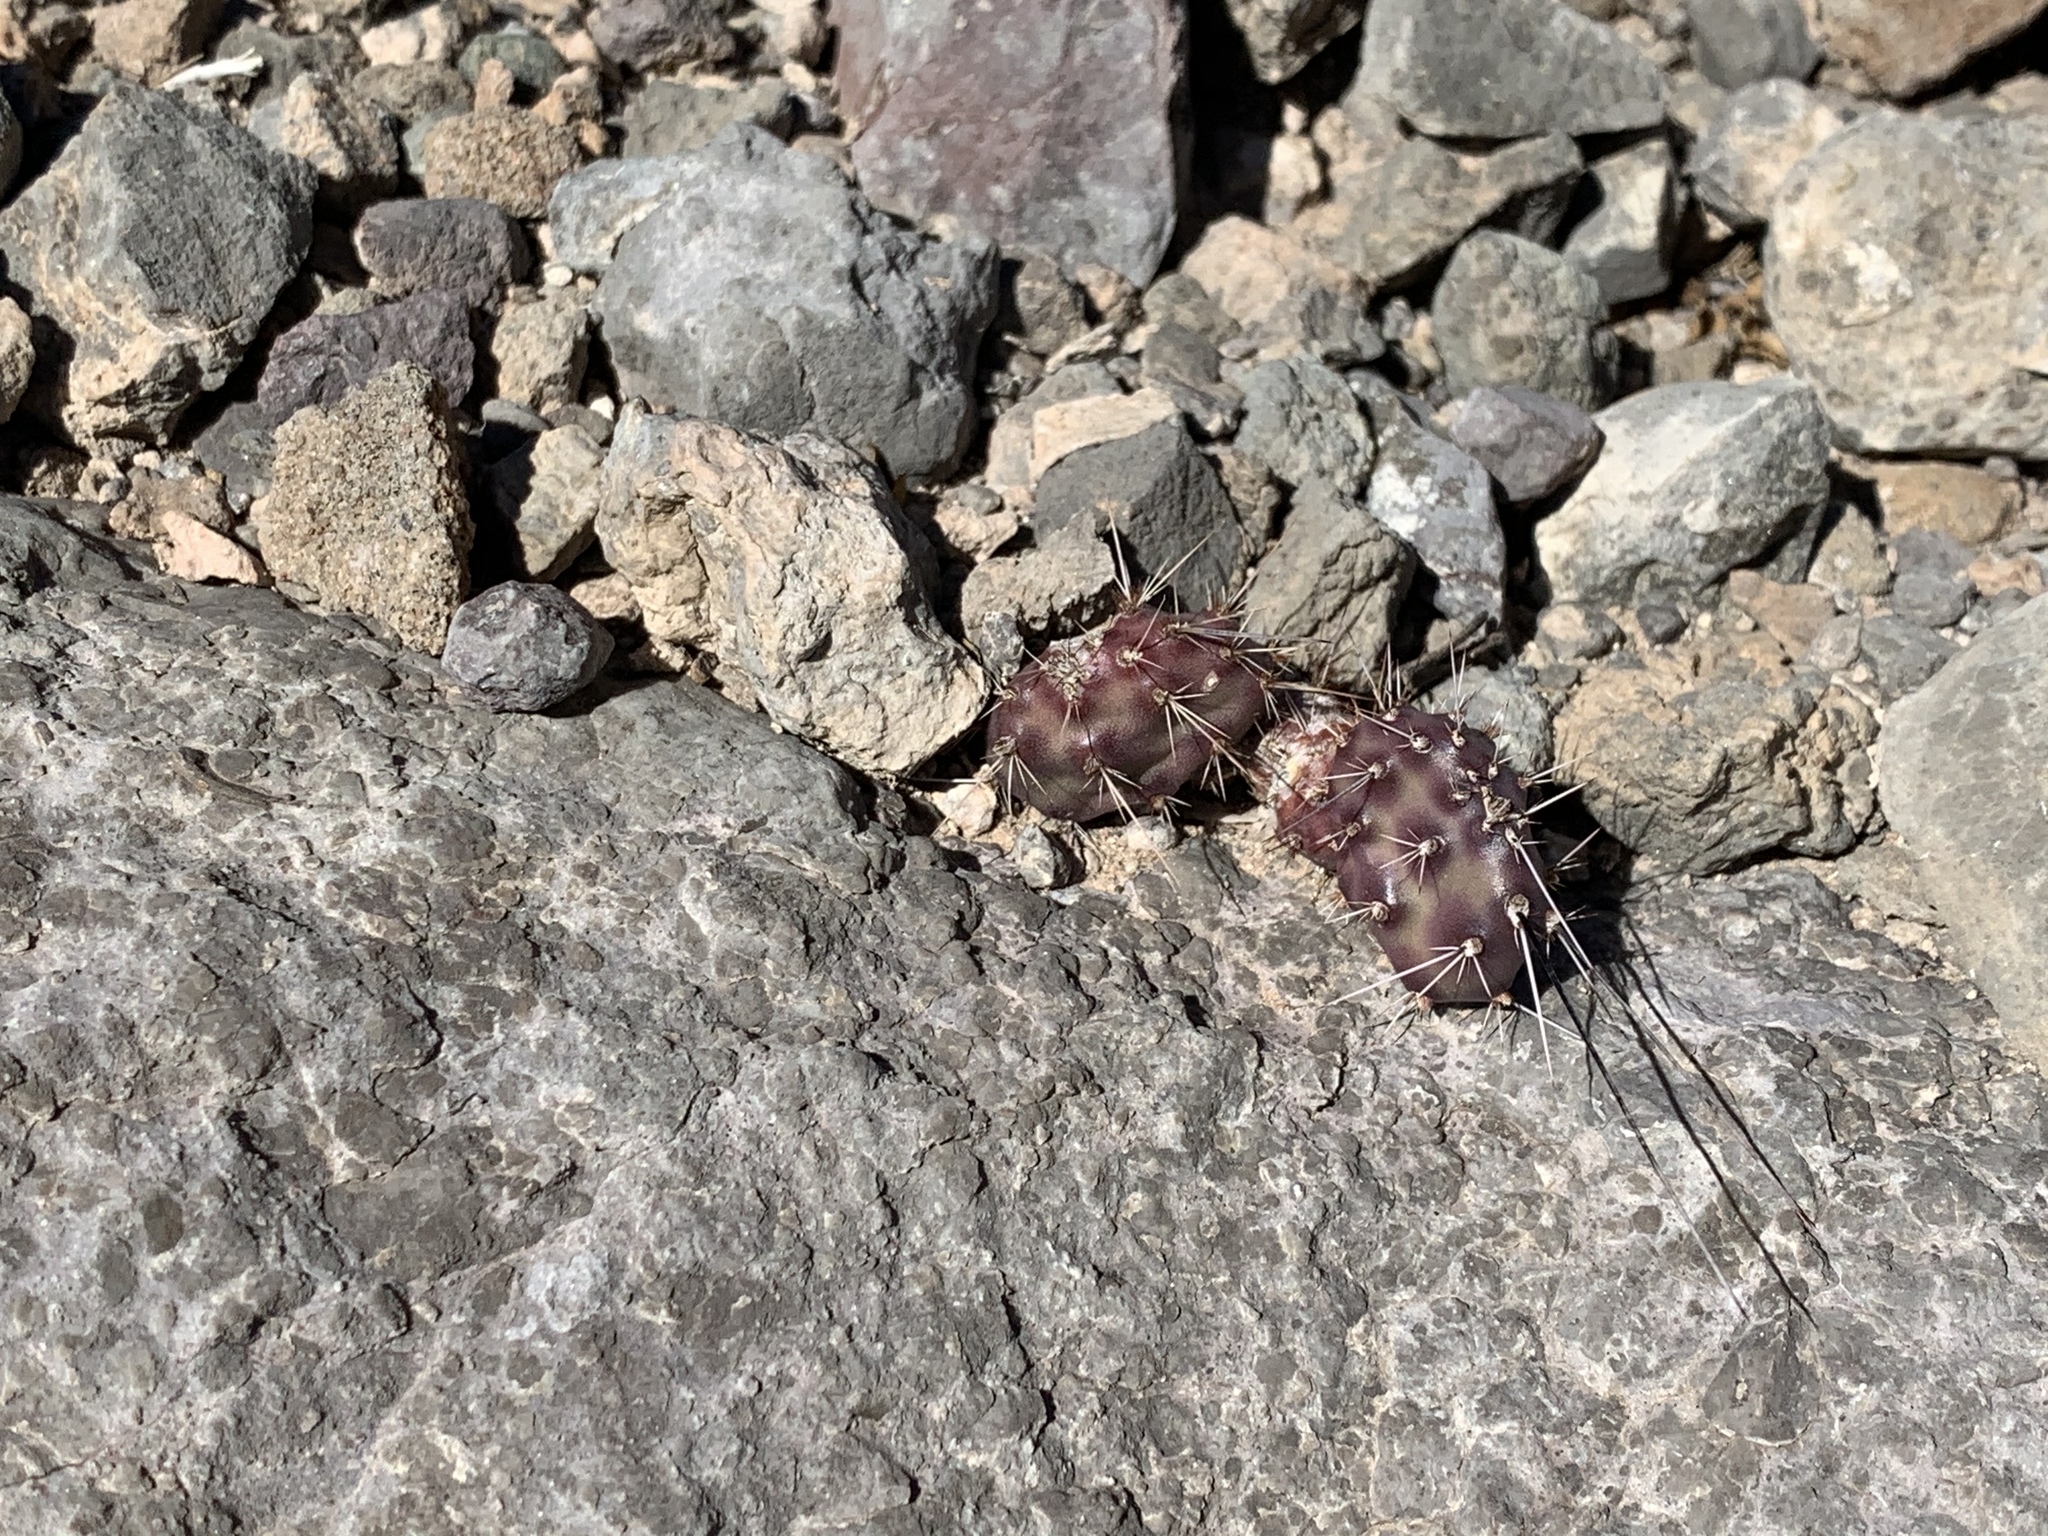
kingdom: Plantae
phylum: Tracheophyta
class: Magnoliopsida
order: Caryophyllales
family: Cactaceae
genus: Opuntia
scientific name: Opuntia macrocentra
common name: Purple prickly-pear
